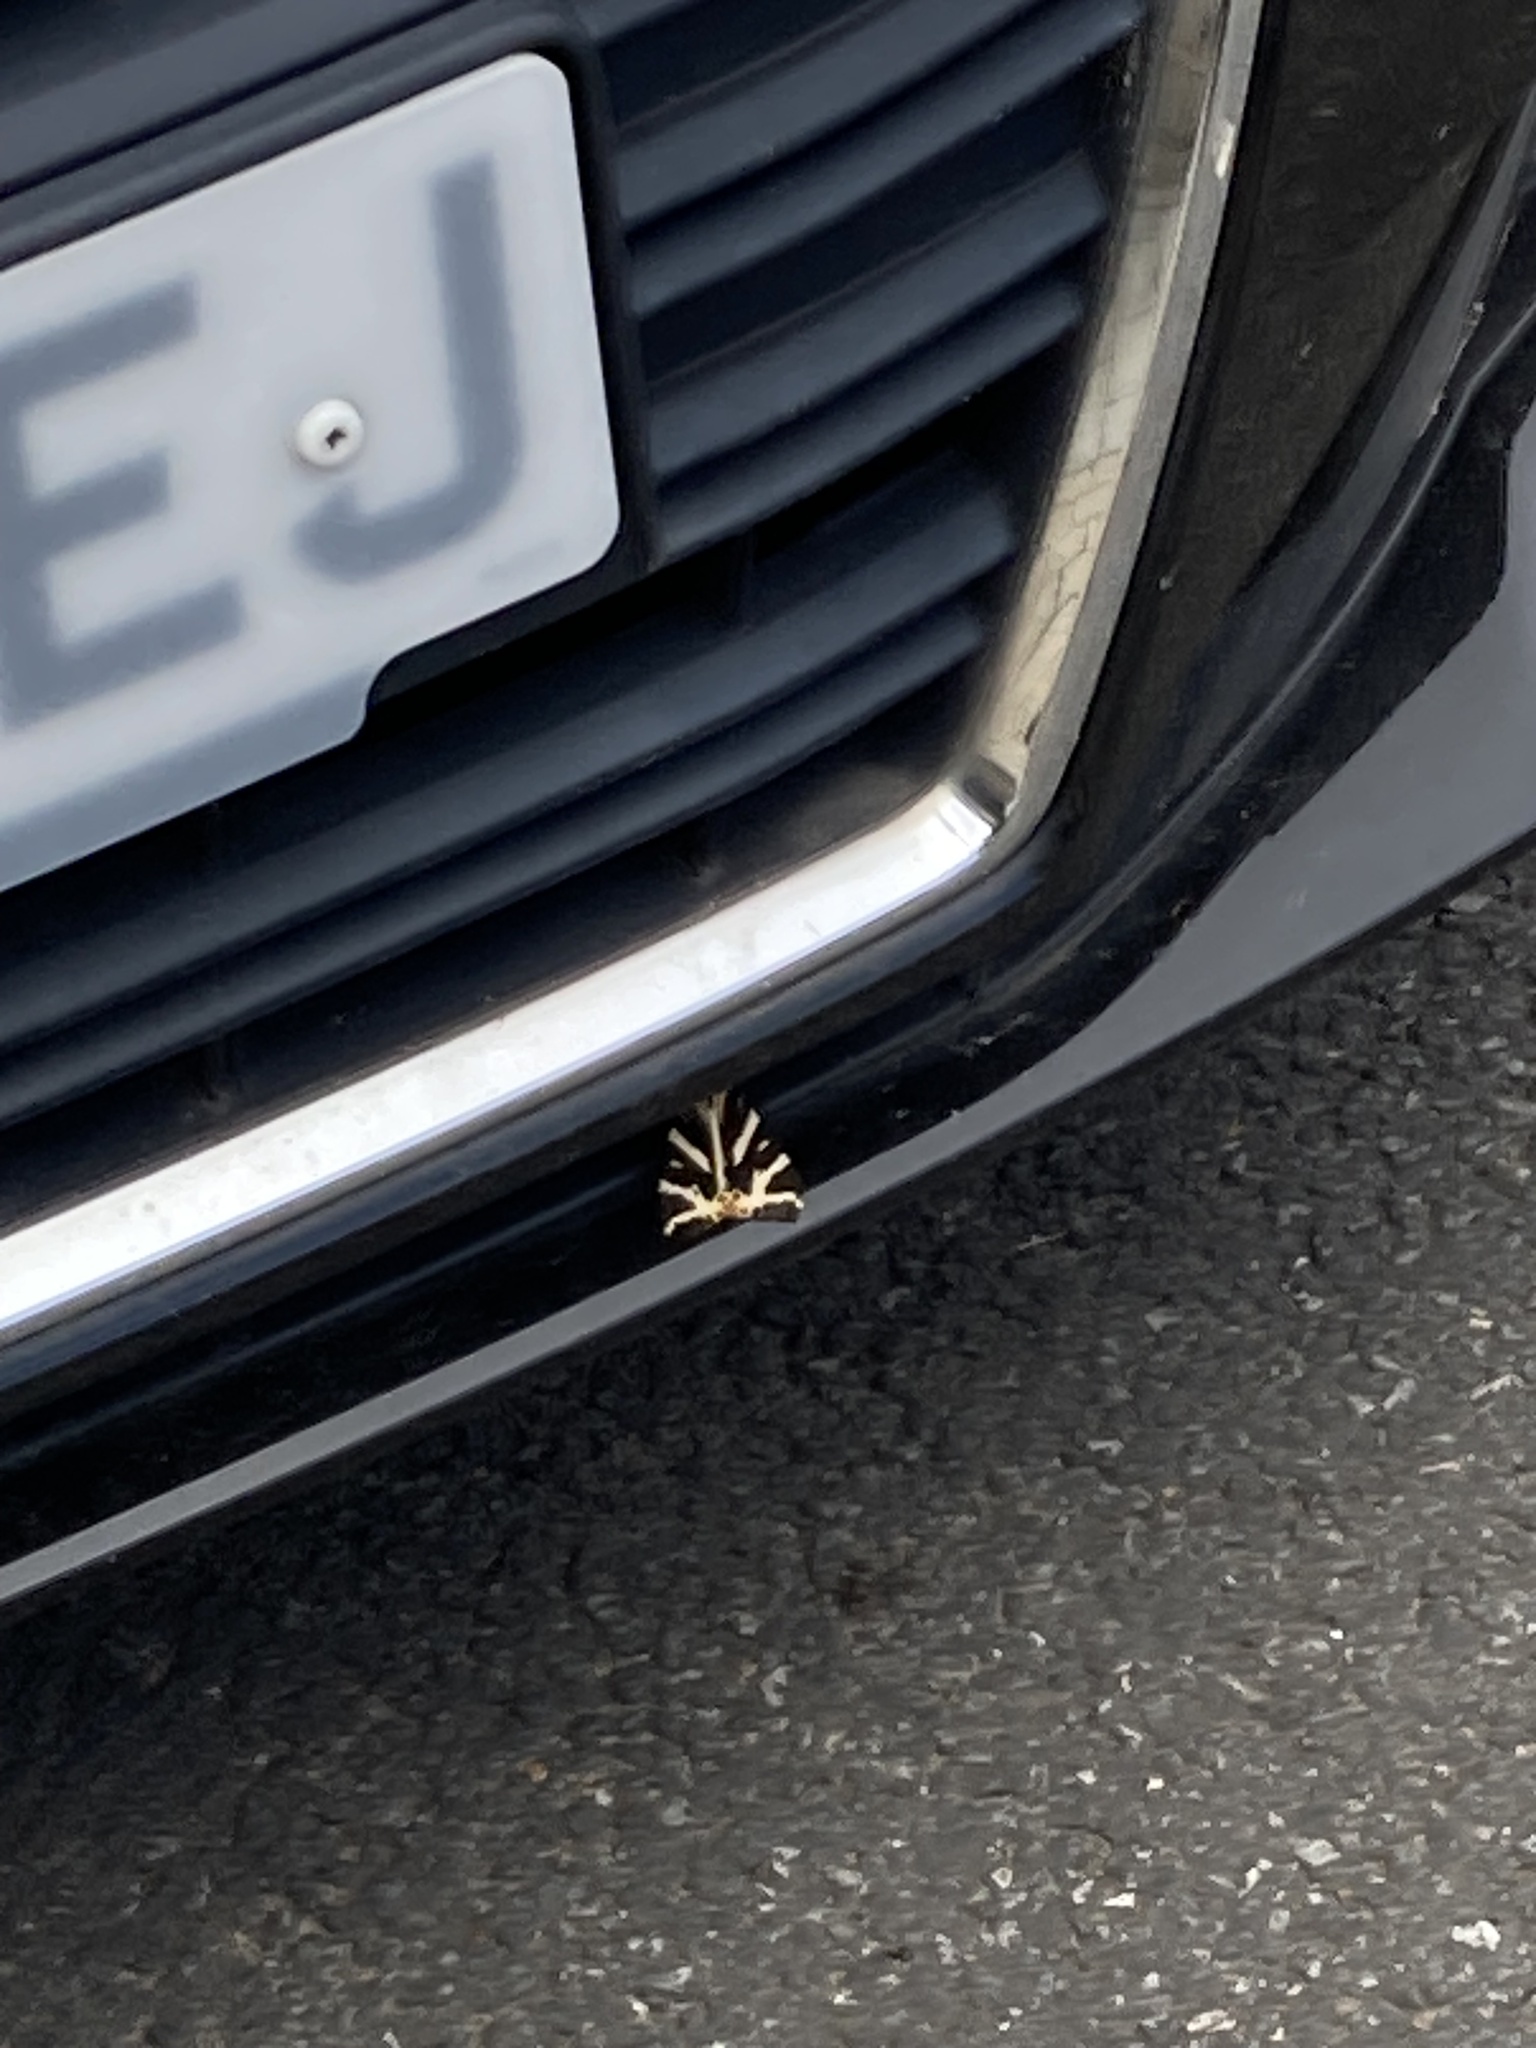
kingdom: Animalia
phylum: Arthropoda
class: Insecta
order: Lepidoptera
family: Erebidae
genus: Euplagia
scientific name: Euplagia quadripunctaria
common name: Jersey tiger
